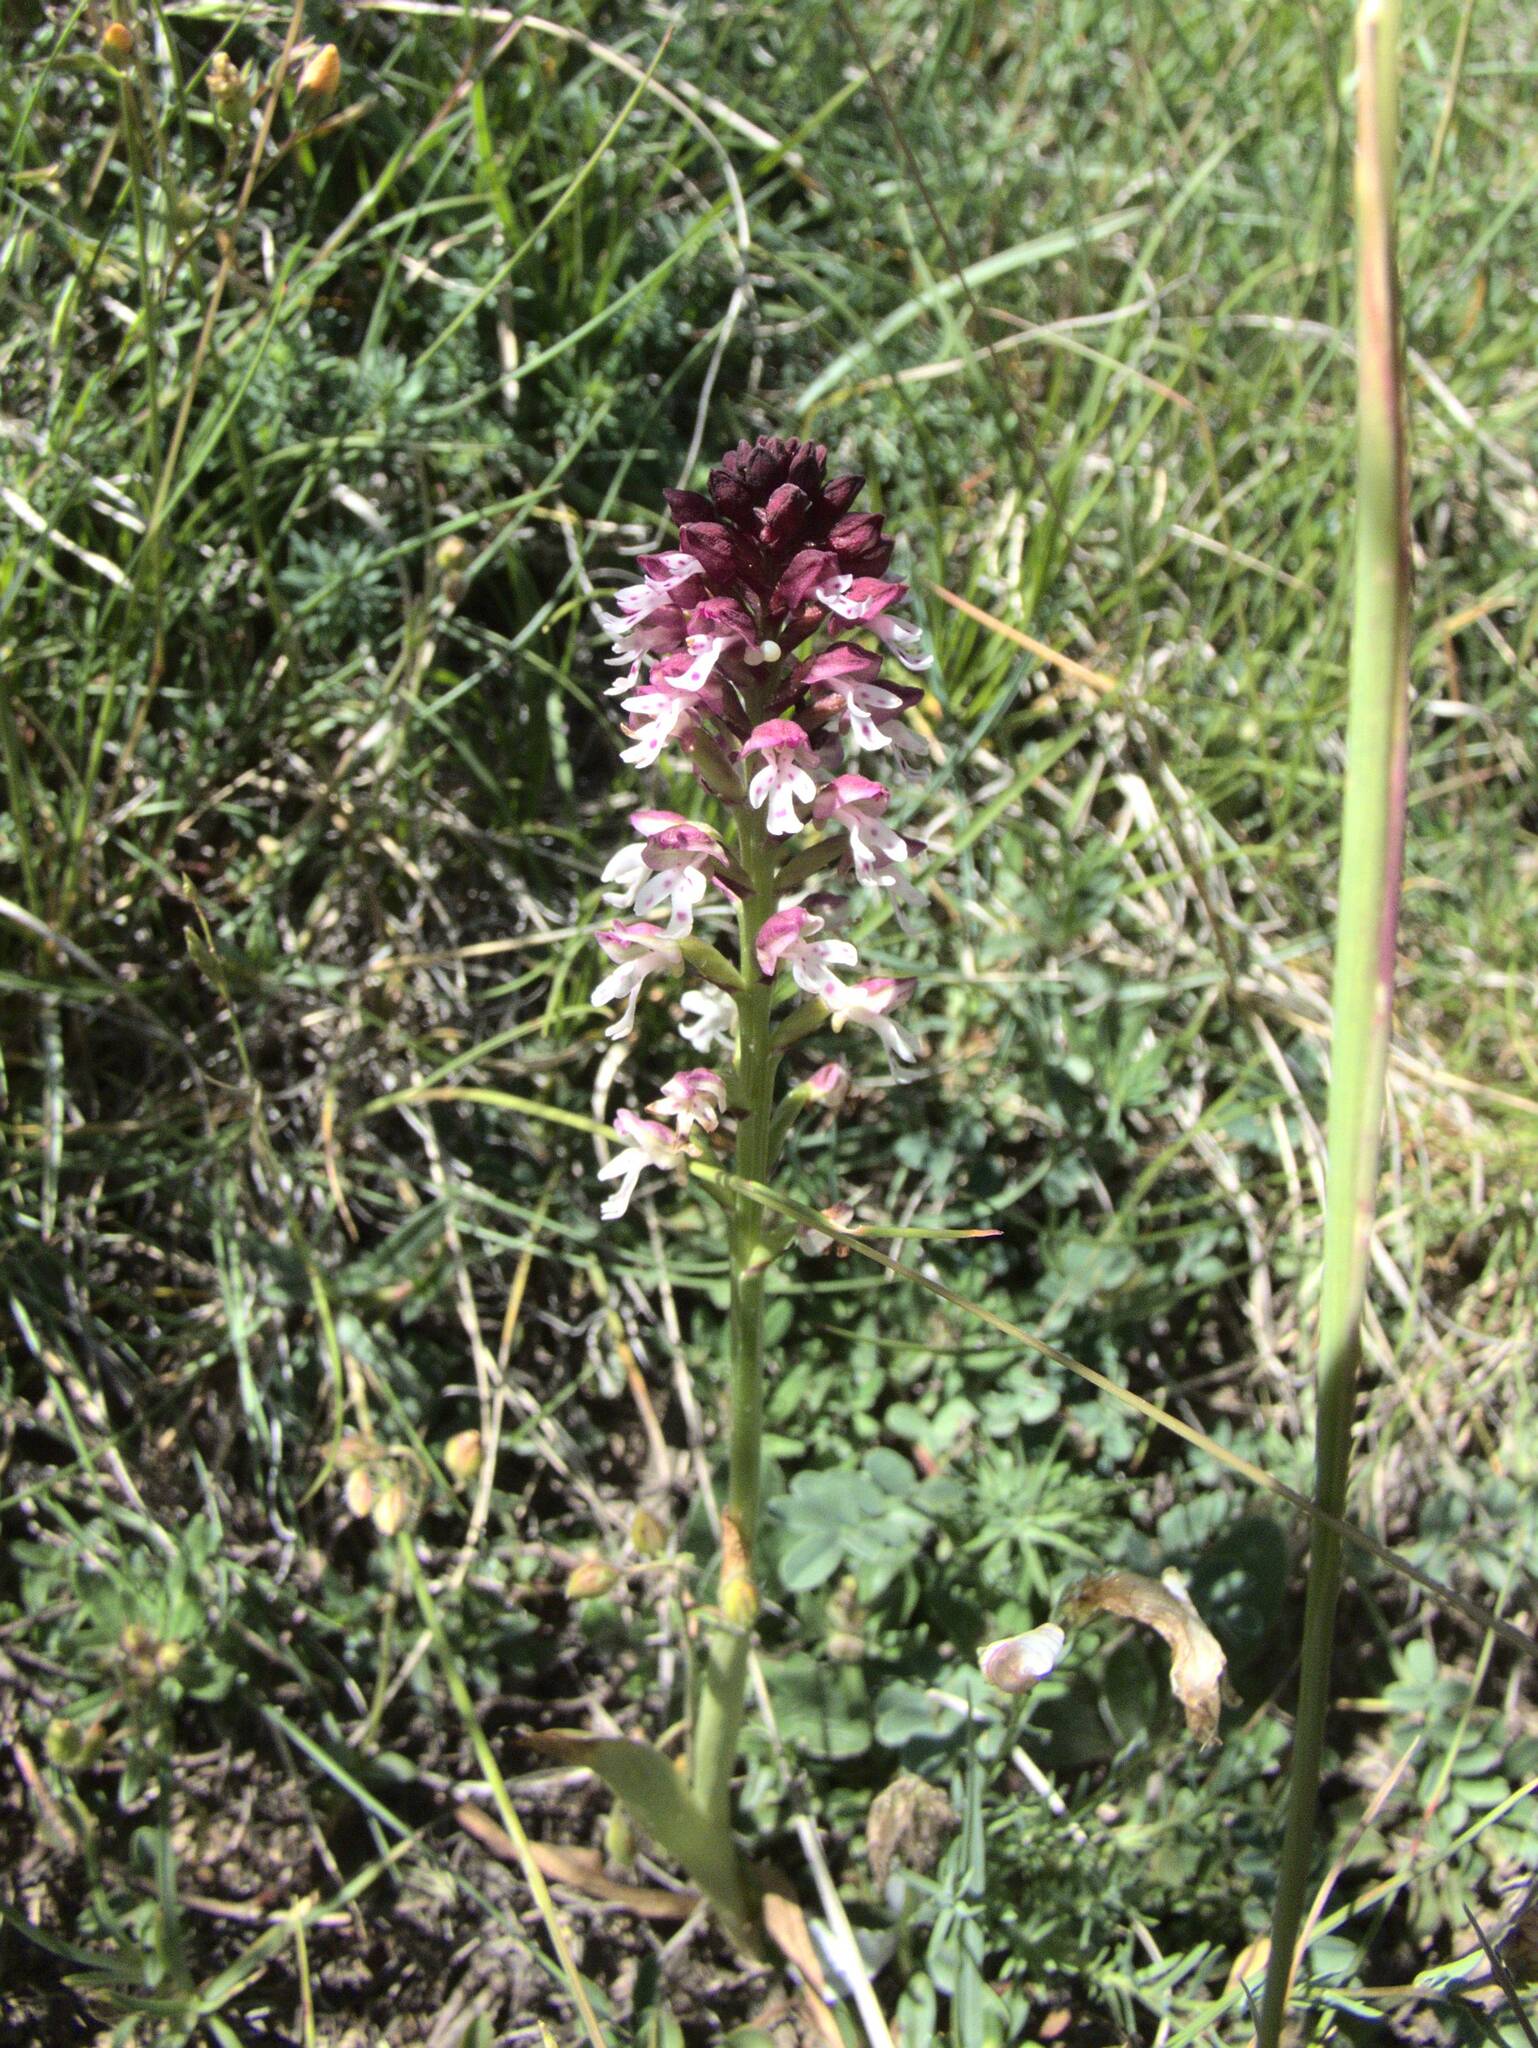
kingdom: Plantae
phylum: Tracheophyta
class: Liliopsida
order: Asparagales
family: Orchidaceae
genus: Neotinea
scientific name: Neotinea ustulata
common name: Burnt orchid
